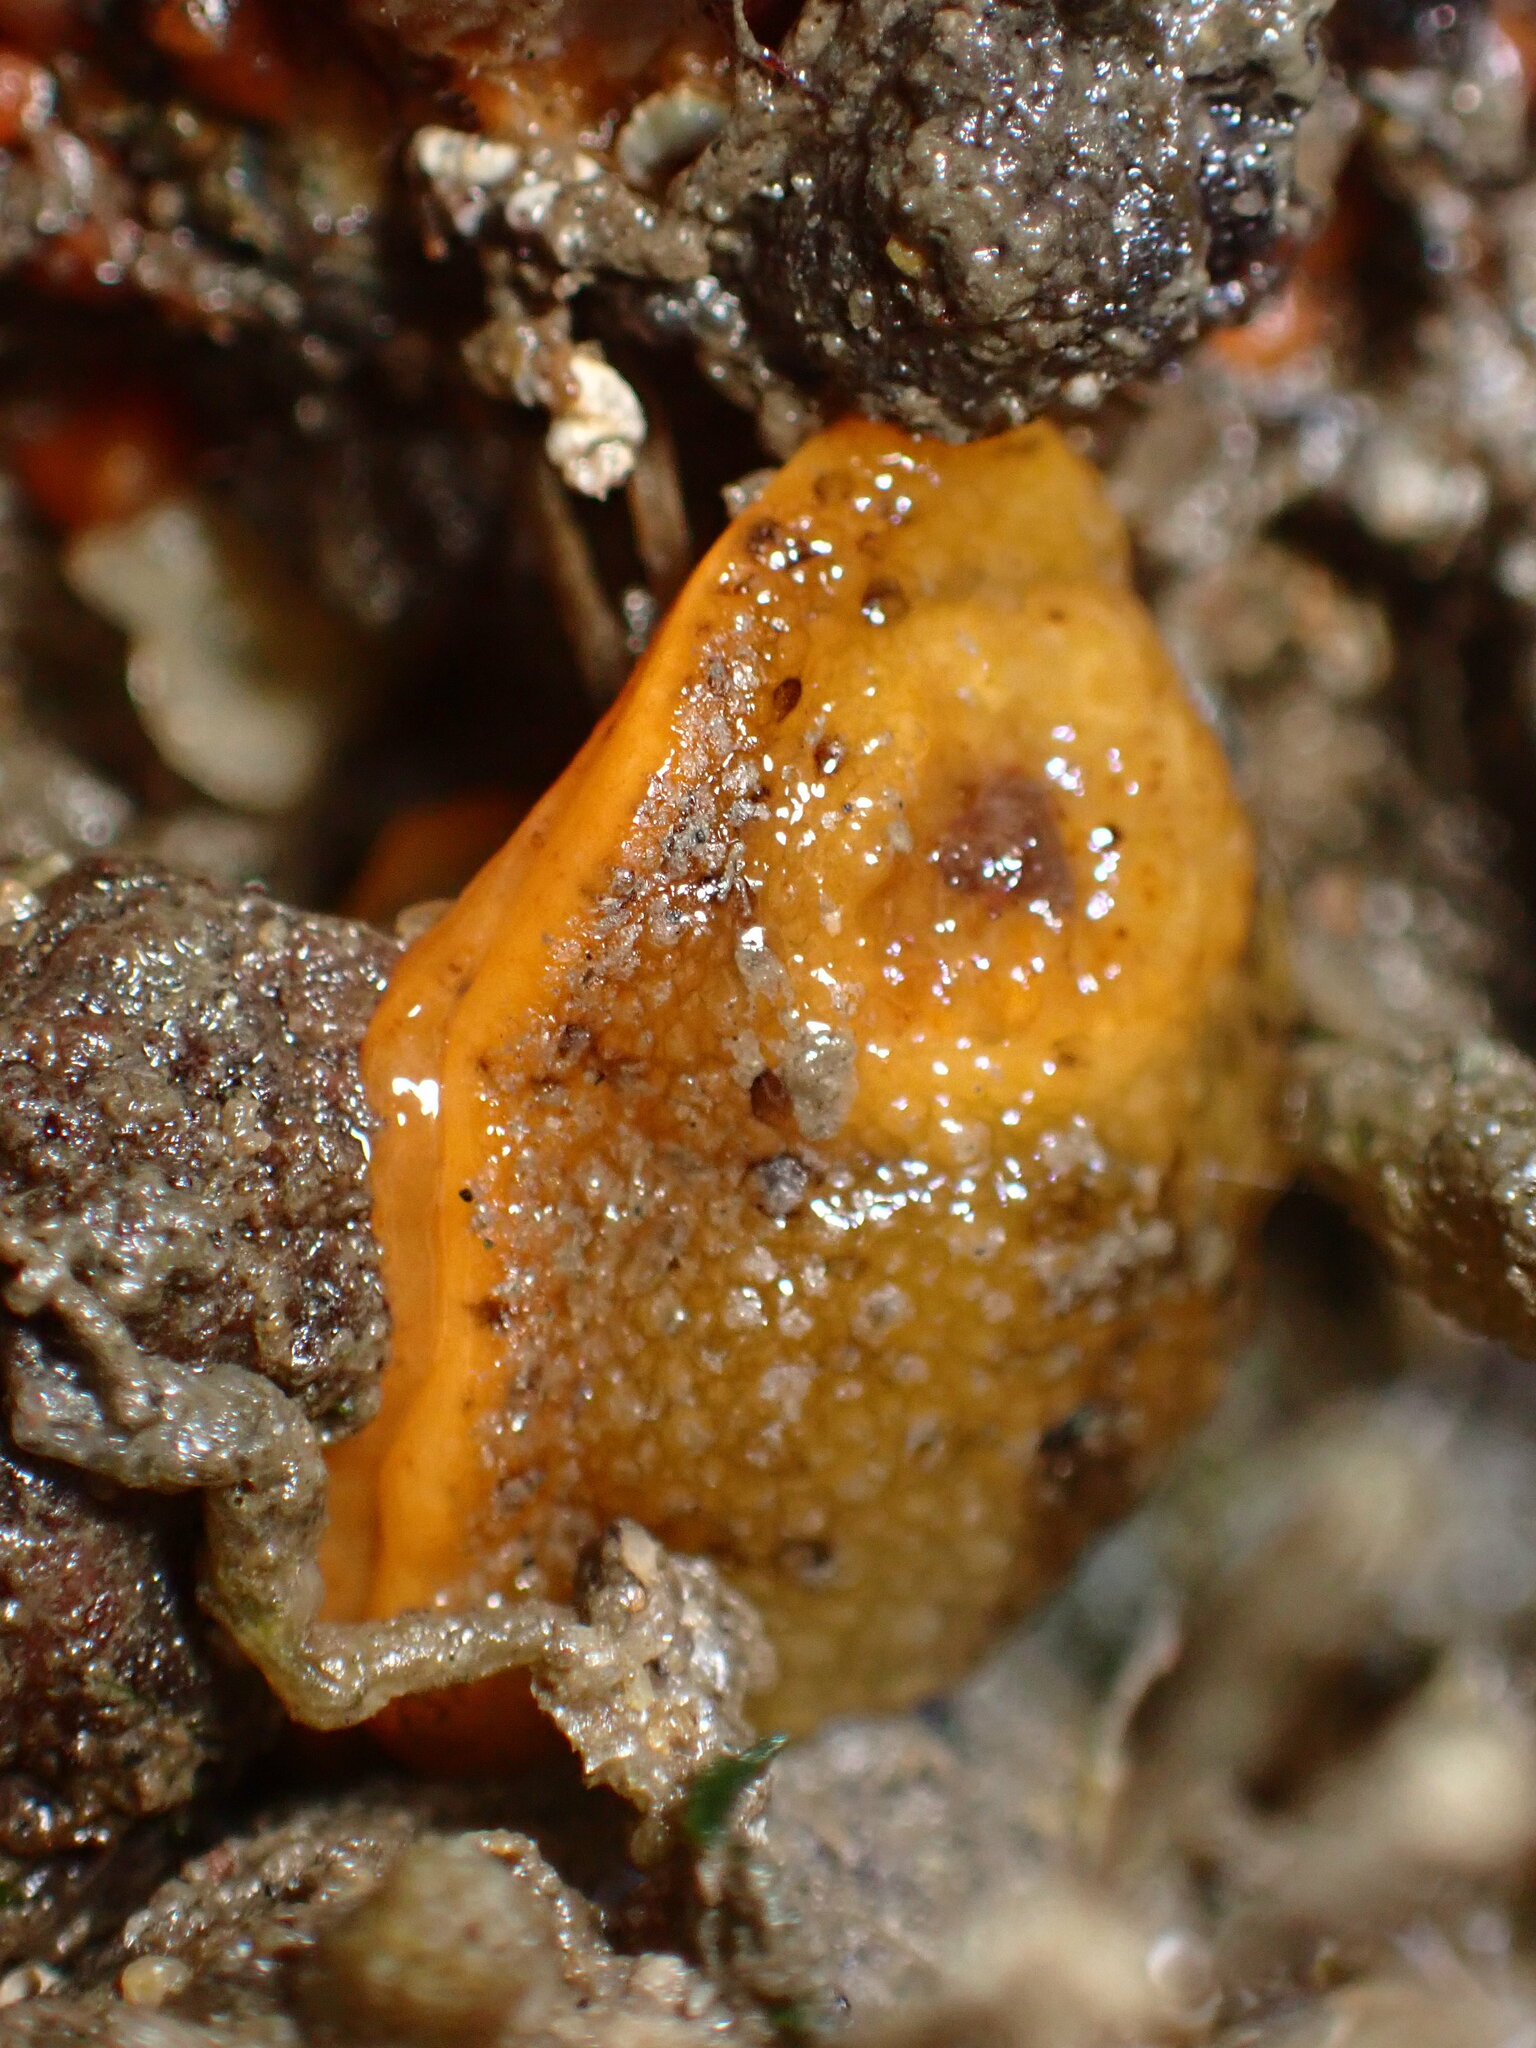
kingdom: Animalia
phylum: Mollusca
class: Gastropoda
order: Nudibranchia
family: Dorididae
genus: Doris
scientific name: Doris montereyensis
